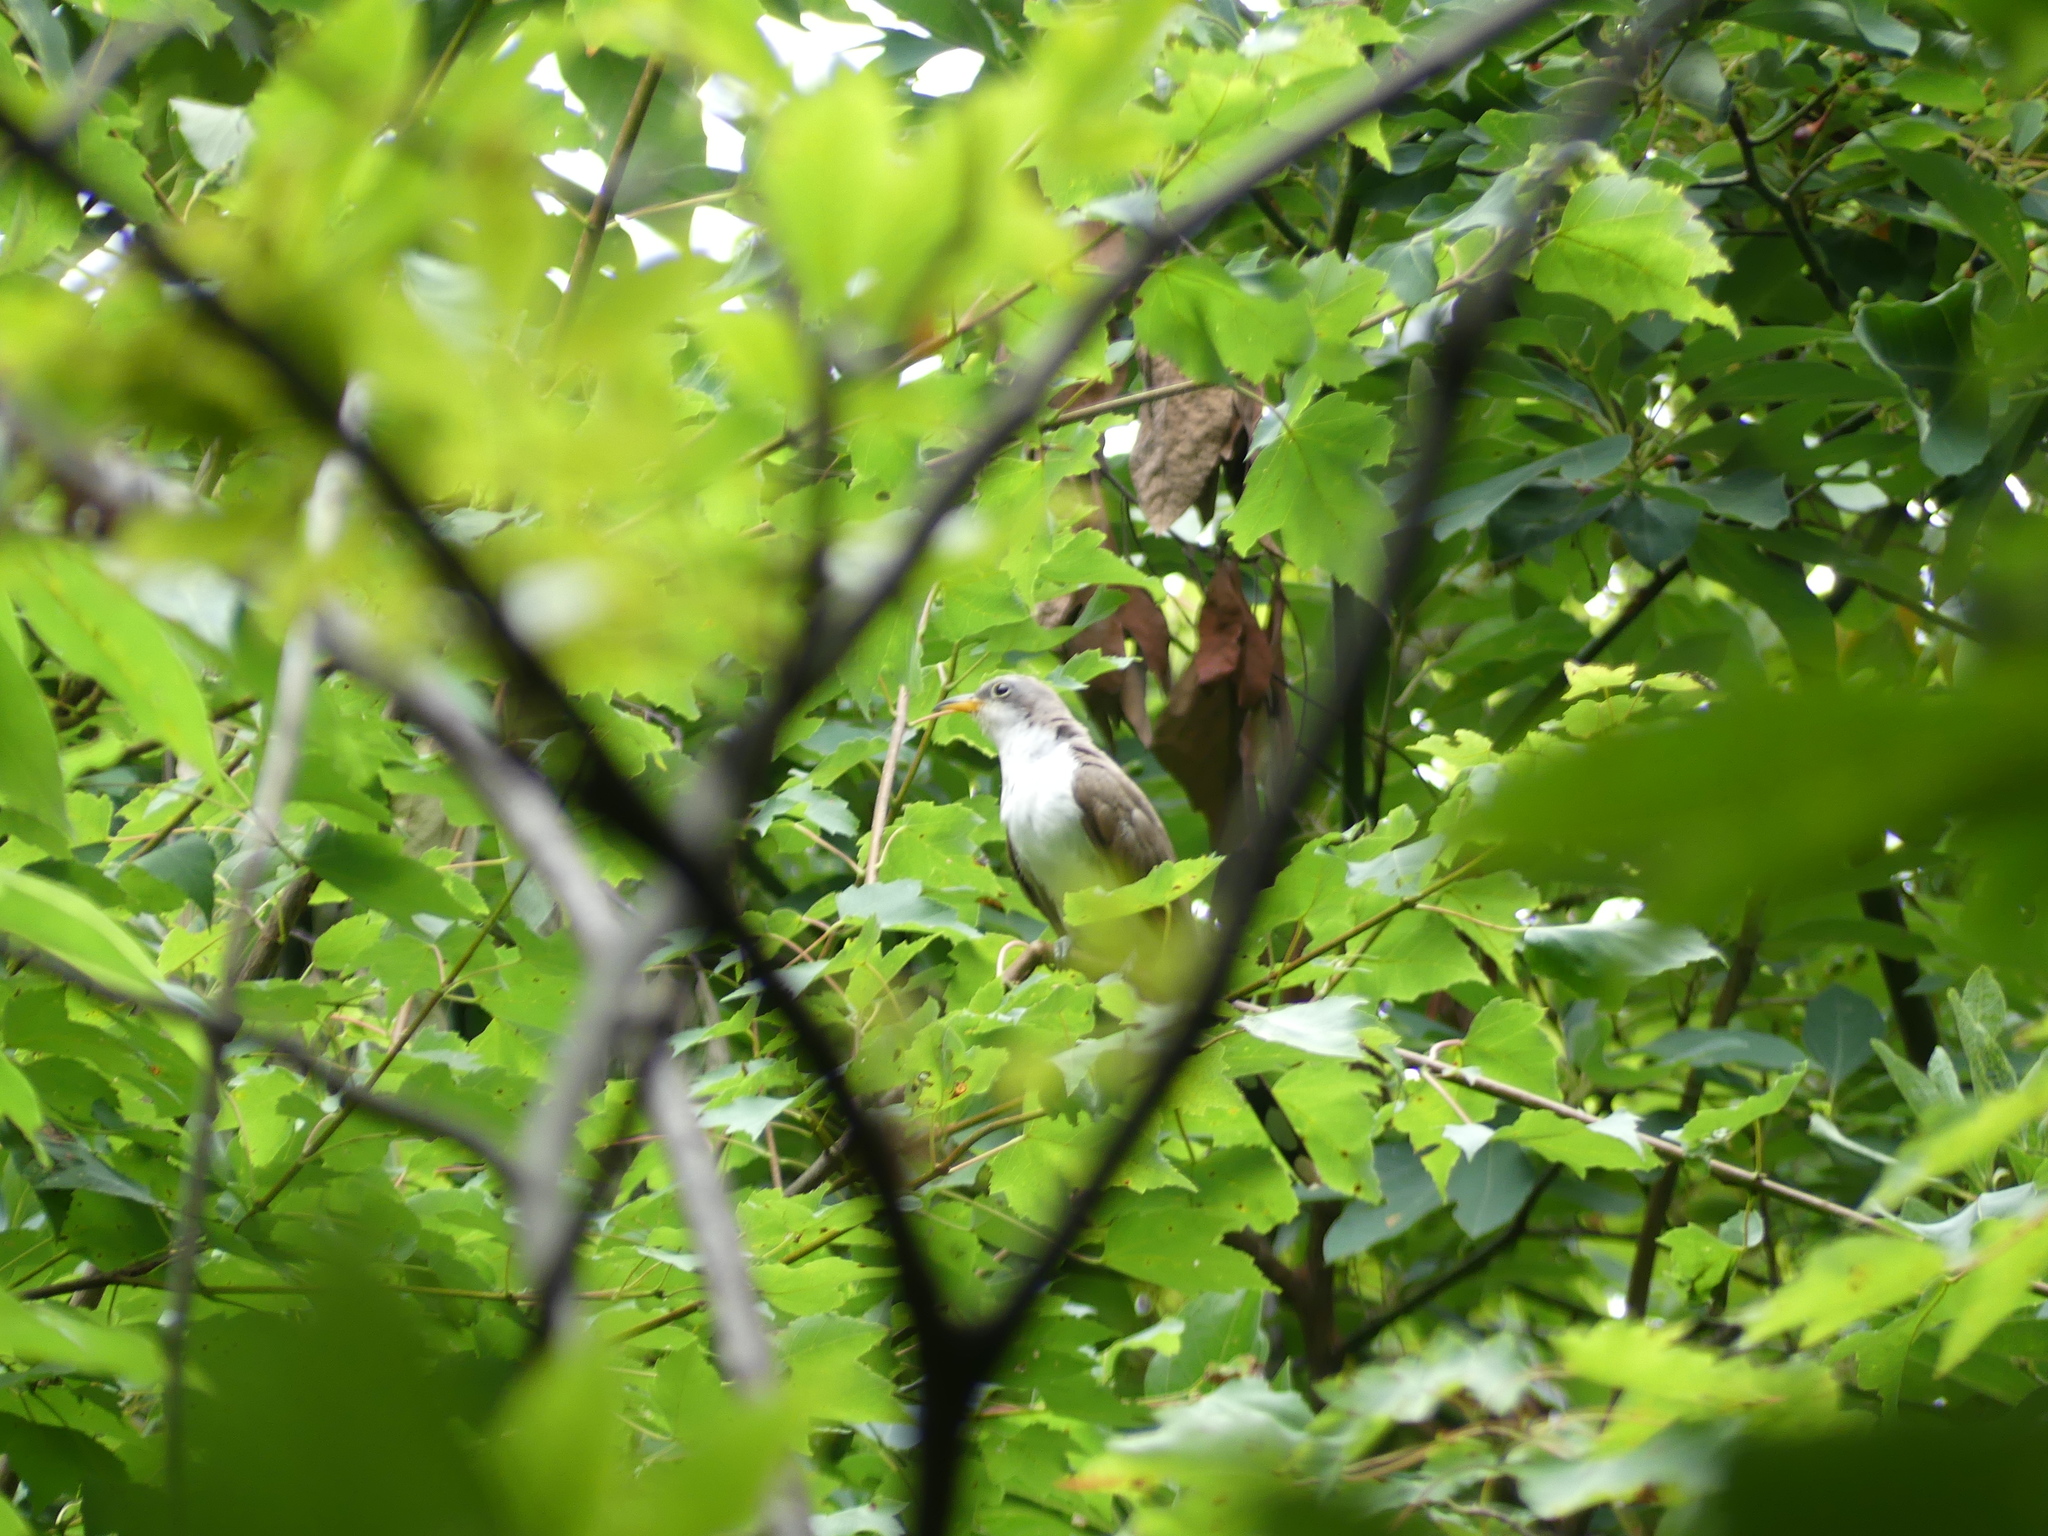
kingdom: Animalia
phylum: Chordata
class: Aves
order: Cuculiformes
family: Cuculidae
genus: Coccyzus
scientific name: Coccyzus americanus
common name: Yellow-billed cuckoo
